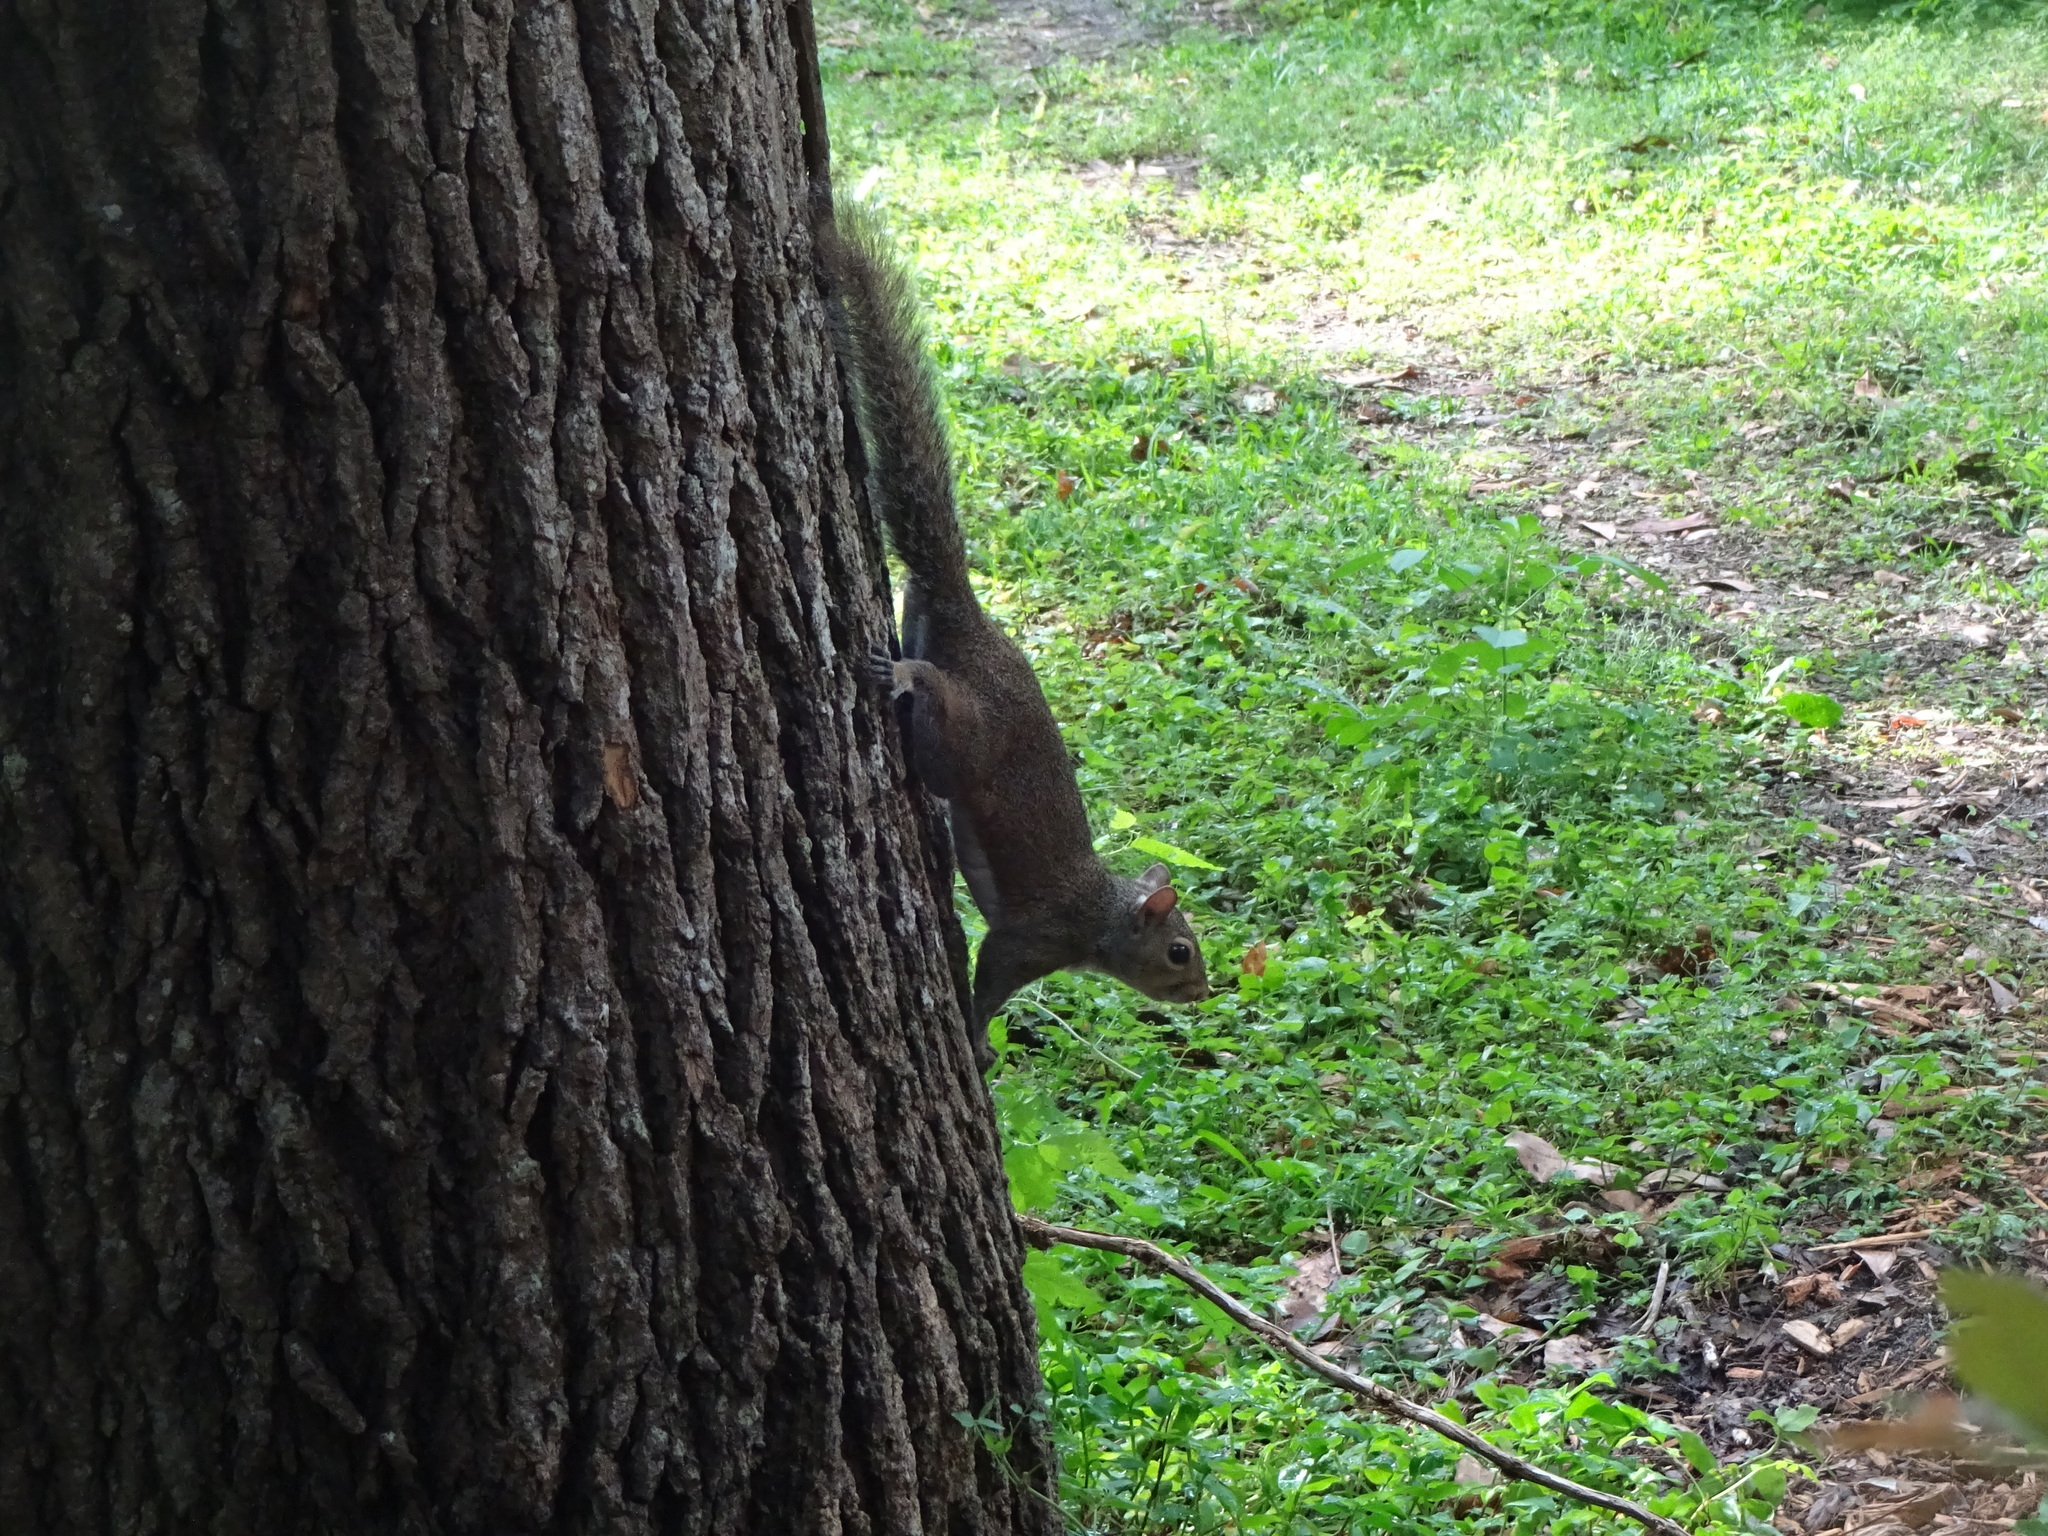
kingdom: Animalia
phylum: Chordata
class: Mammalia
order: Rodentia
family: Sciuridae
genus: Sciurus
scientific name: Sciurus carolinensis
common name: Eastern gray squirrel
